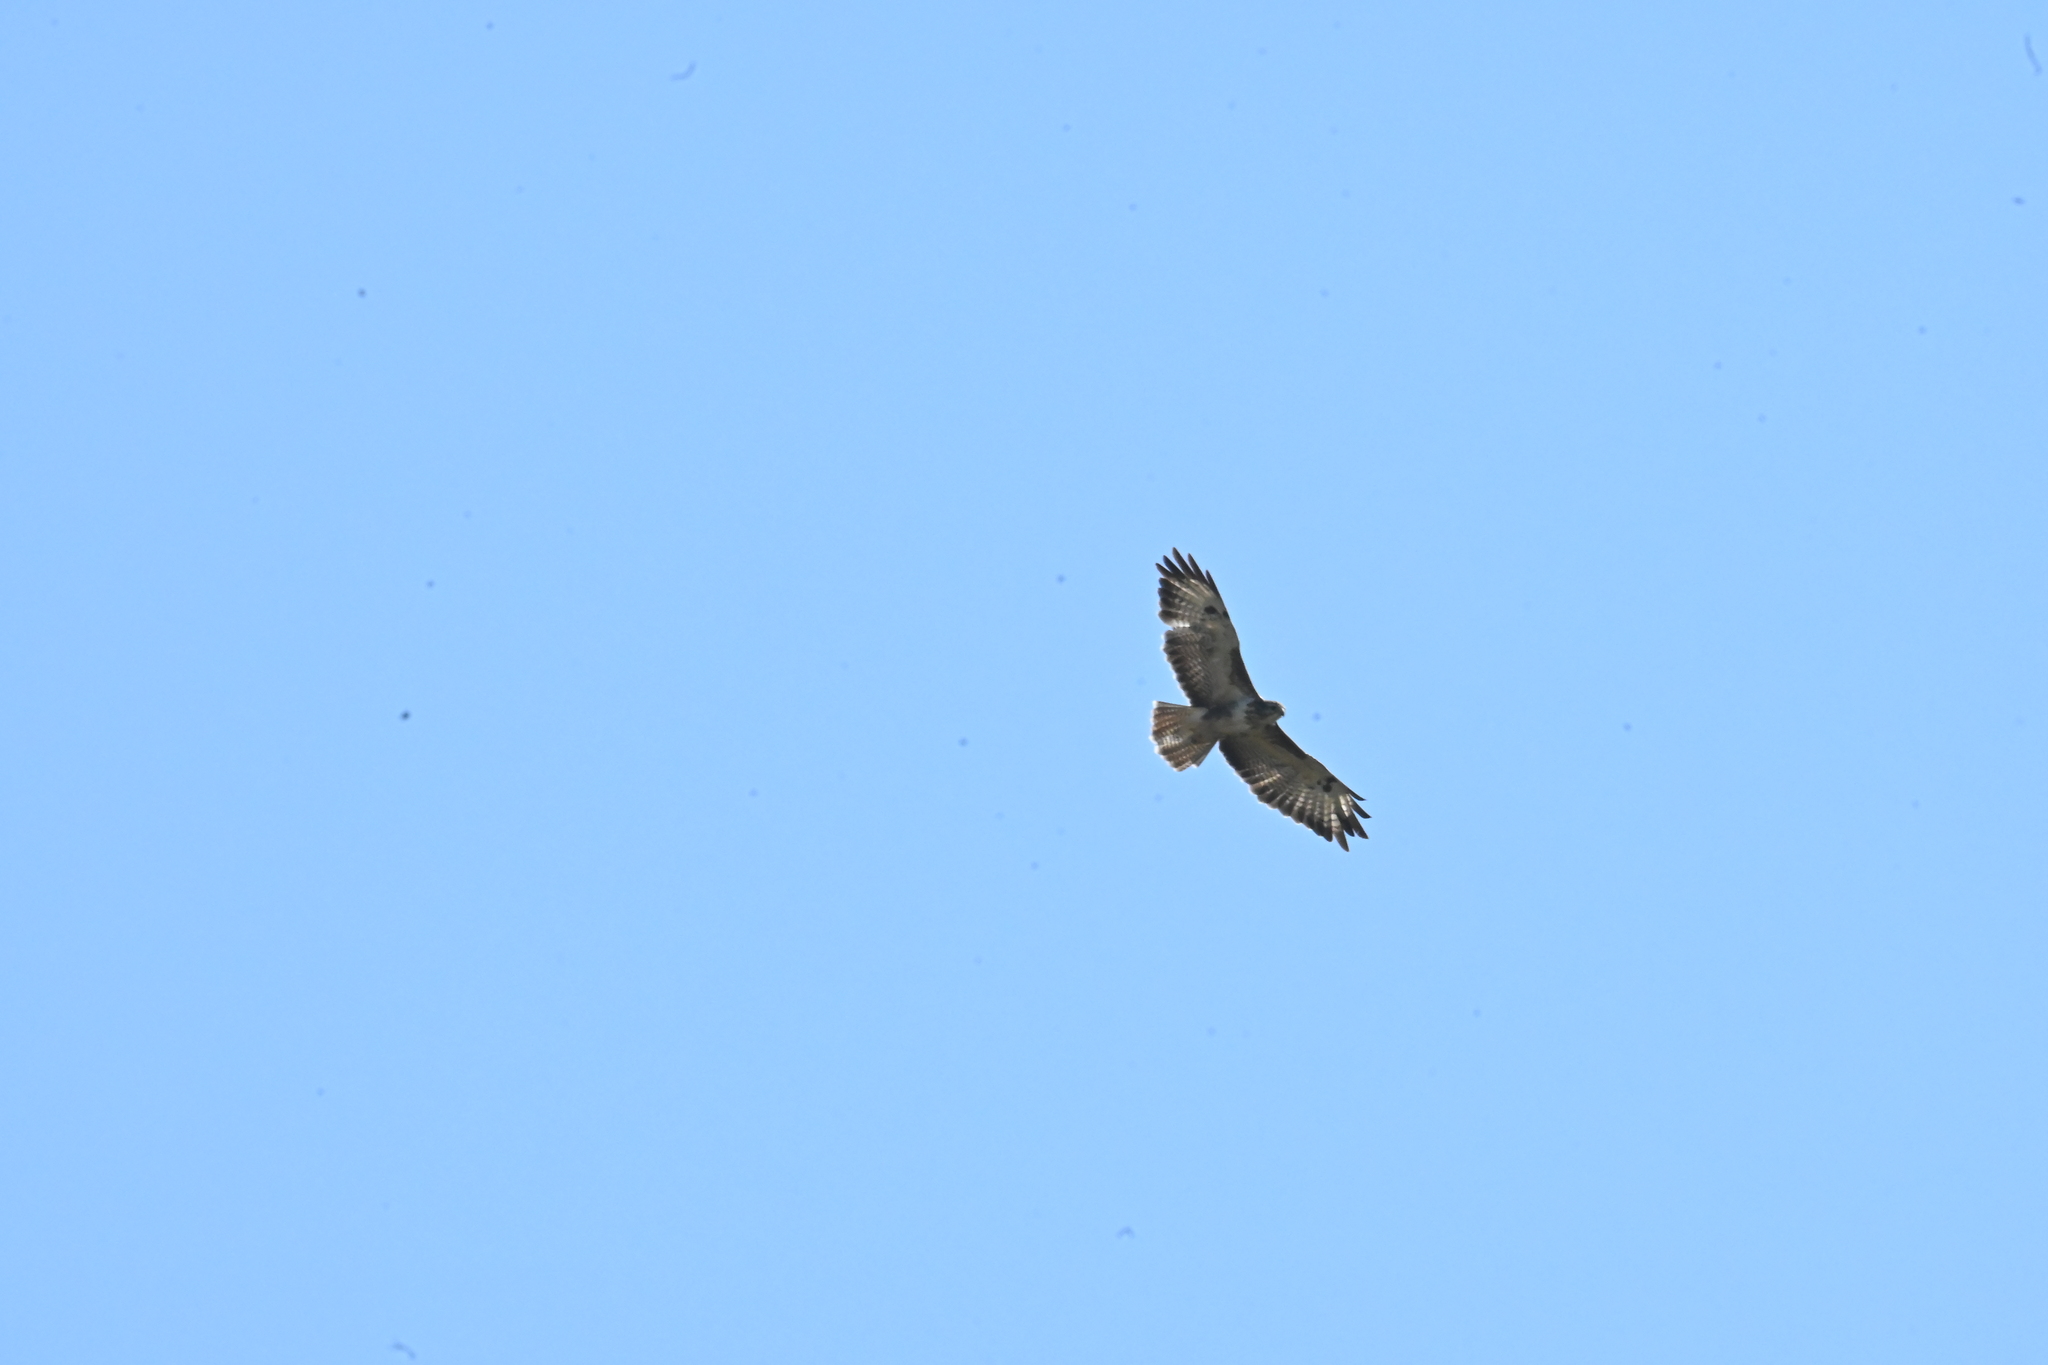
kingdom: Animalia
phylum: Chordata
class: Aves
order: Accipitriformes
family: Accipitridae
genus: Buteo
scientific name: Buteo buteo
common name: Common buzzard
